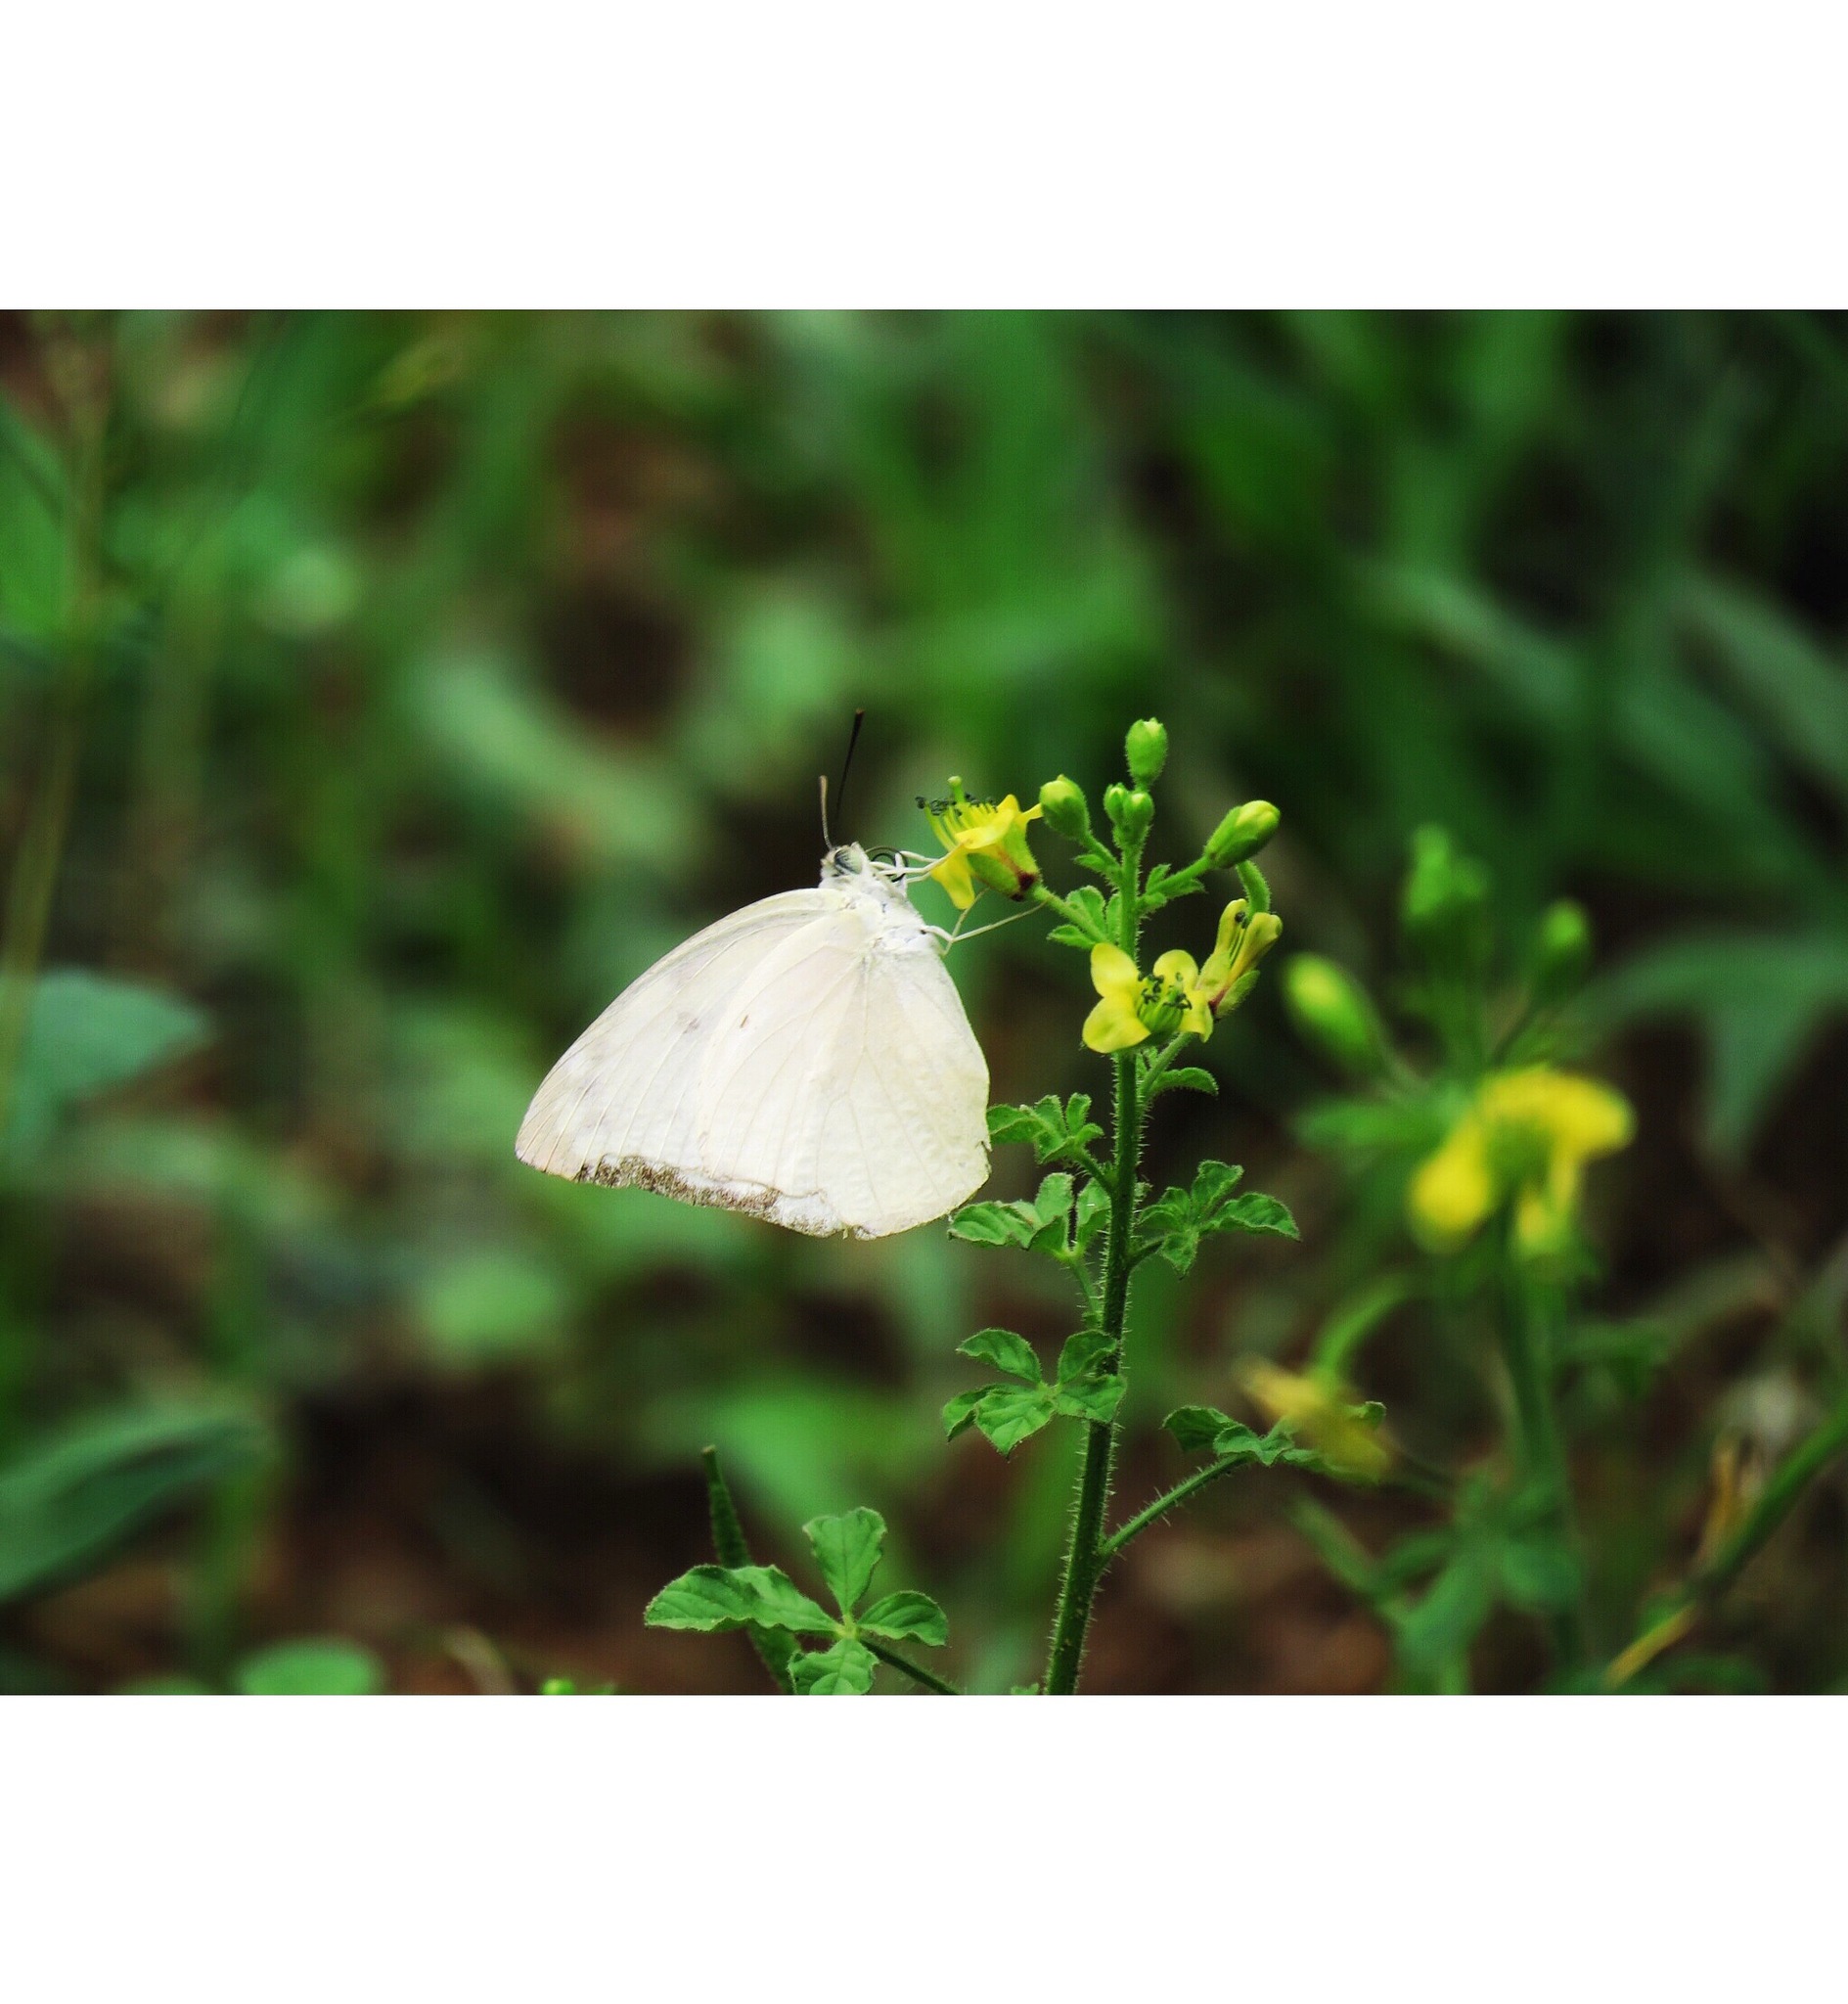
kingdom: Animalia
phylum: Arthropoda
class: Insecta
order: Lepidoptera
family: Pieridae
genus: Catopsilia
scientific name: Catopsilia pomona
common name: Common emigrant
